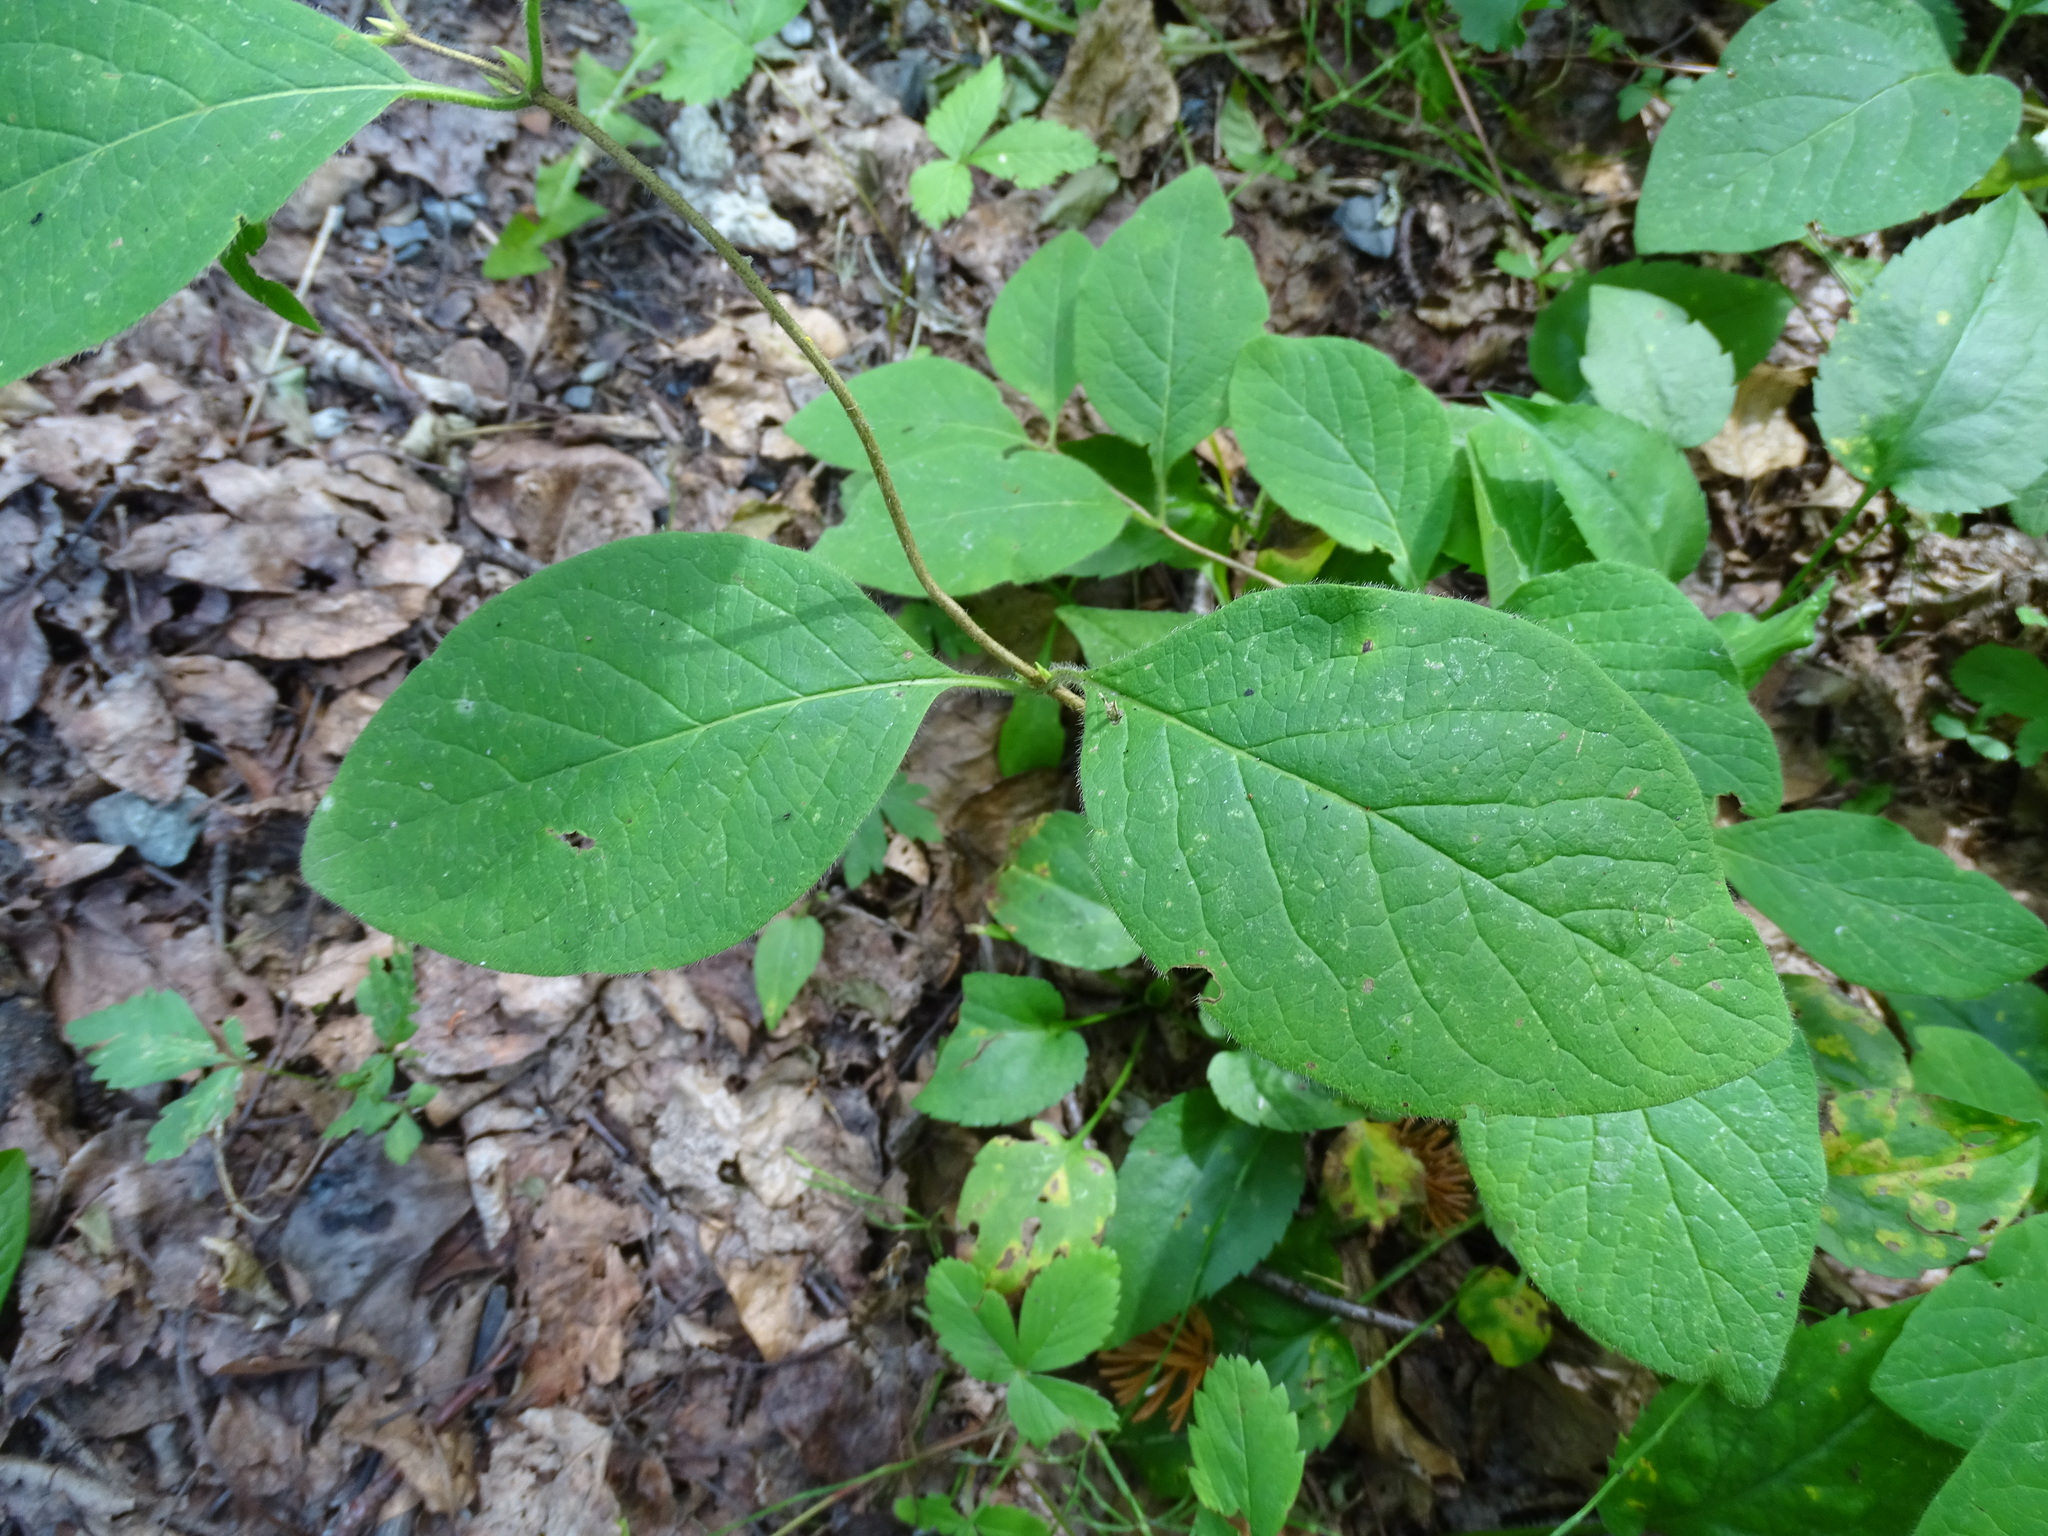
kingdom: Plantae
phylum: Tracheophyta
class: Magnoliopsida
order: Dipsacales
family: Caprifoliaceae
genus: Lonicera
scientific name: Lonicera hirsuta
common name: Hairy honeysuckle
